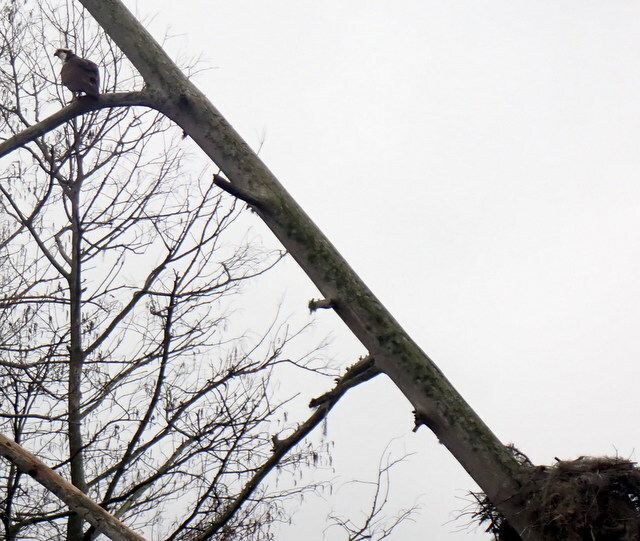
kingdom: Animalia
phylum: Chordata
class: Aves
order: Accipitriformes
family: Pandionidae
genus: Pandion
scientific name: Pandion haliaetus
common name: Osprey
